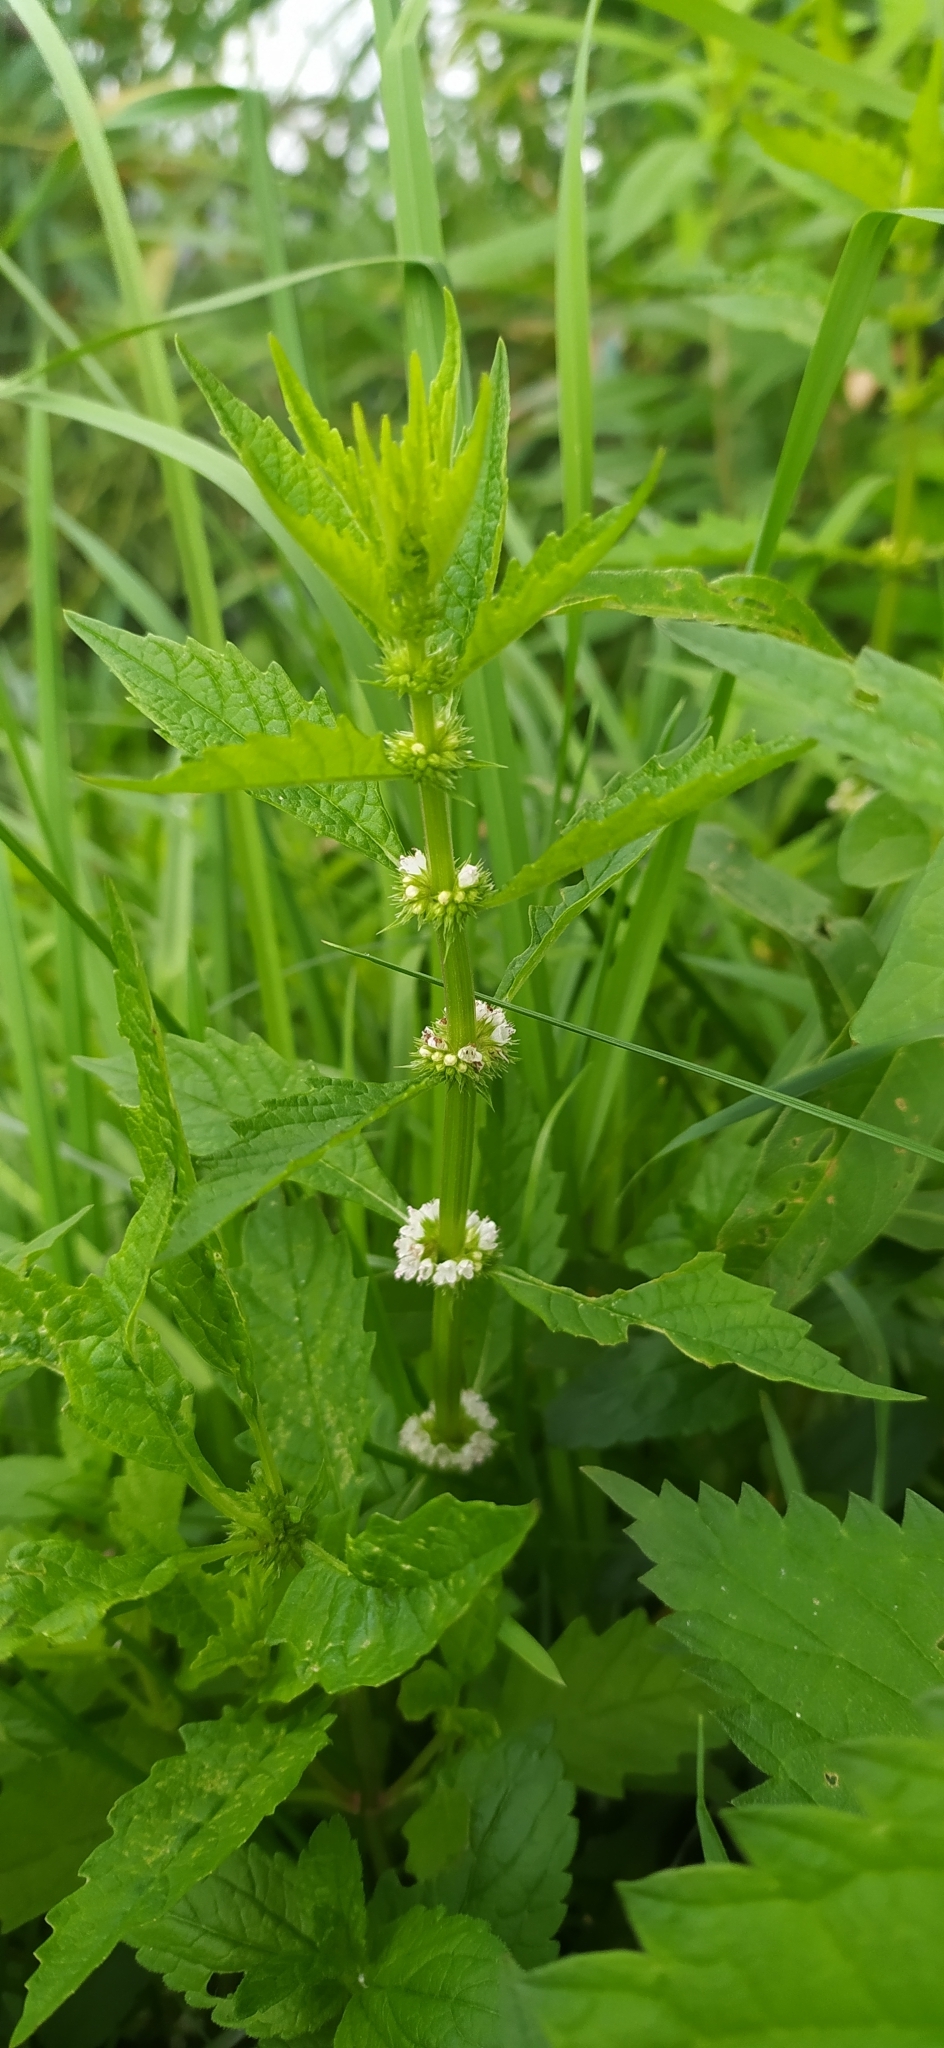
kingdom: Plantae
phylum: Tracheophyta
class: Magnoliopsida
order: Lamiales
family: Lamiaceae
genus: Lycopus
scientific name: Lycopus europaeus
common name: European bugleweed
